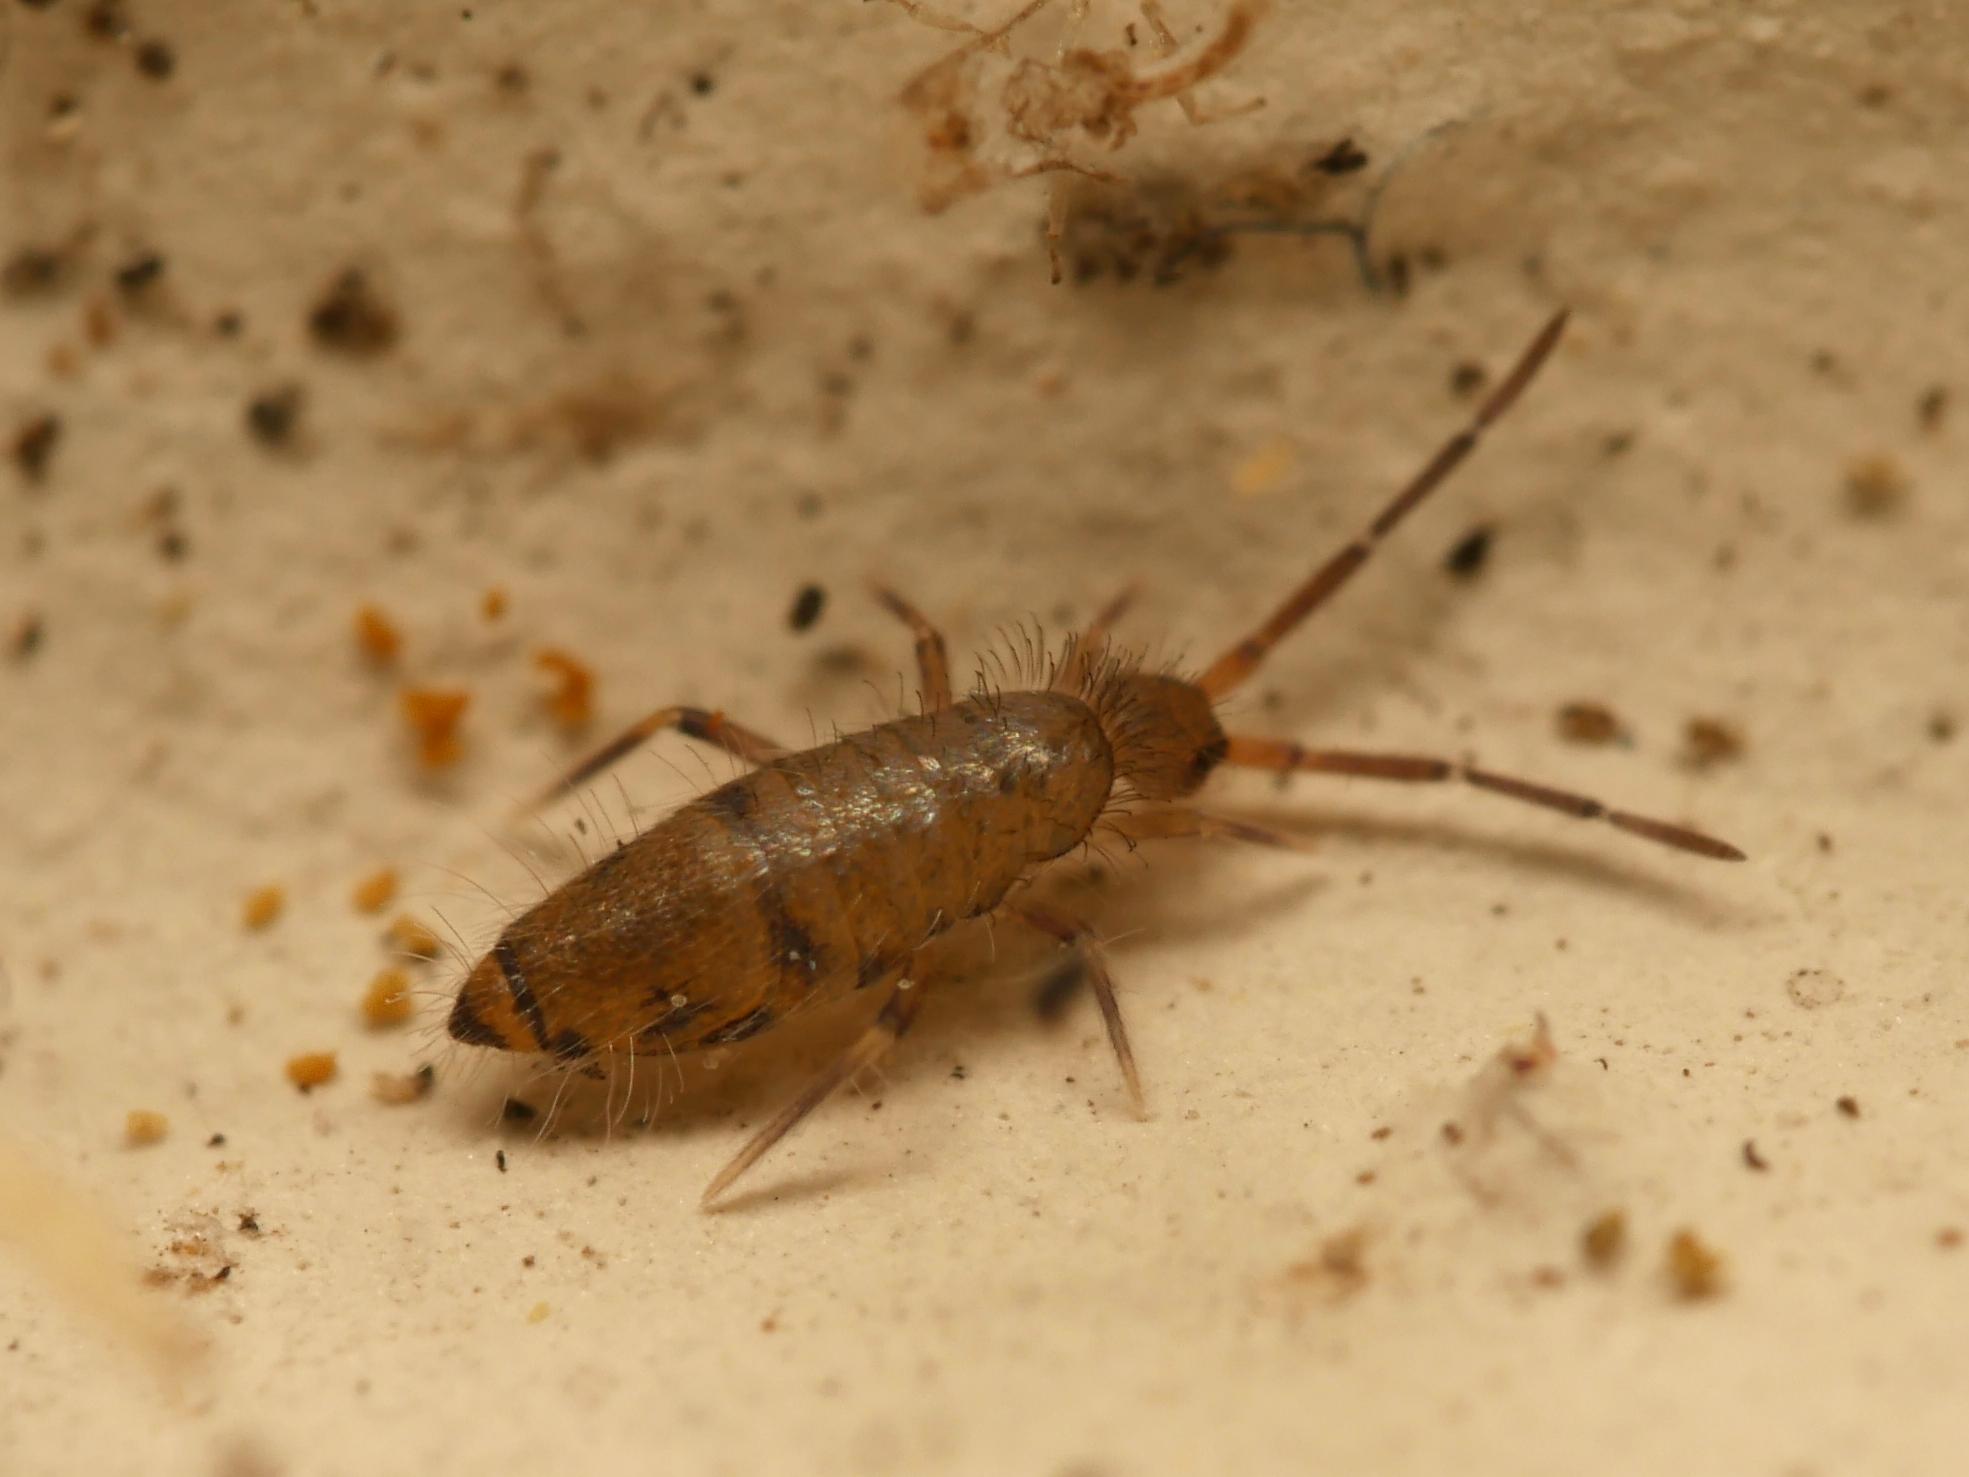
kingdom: Animalia
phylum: Arthropoda
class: Collembola
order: Entomobryomorpha
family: Entomobryidae
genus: Willowsia
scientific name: Willowsia nigromaculata
